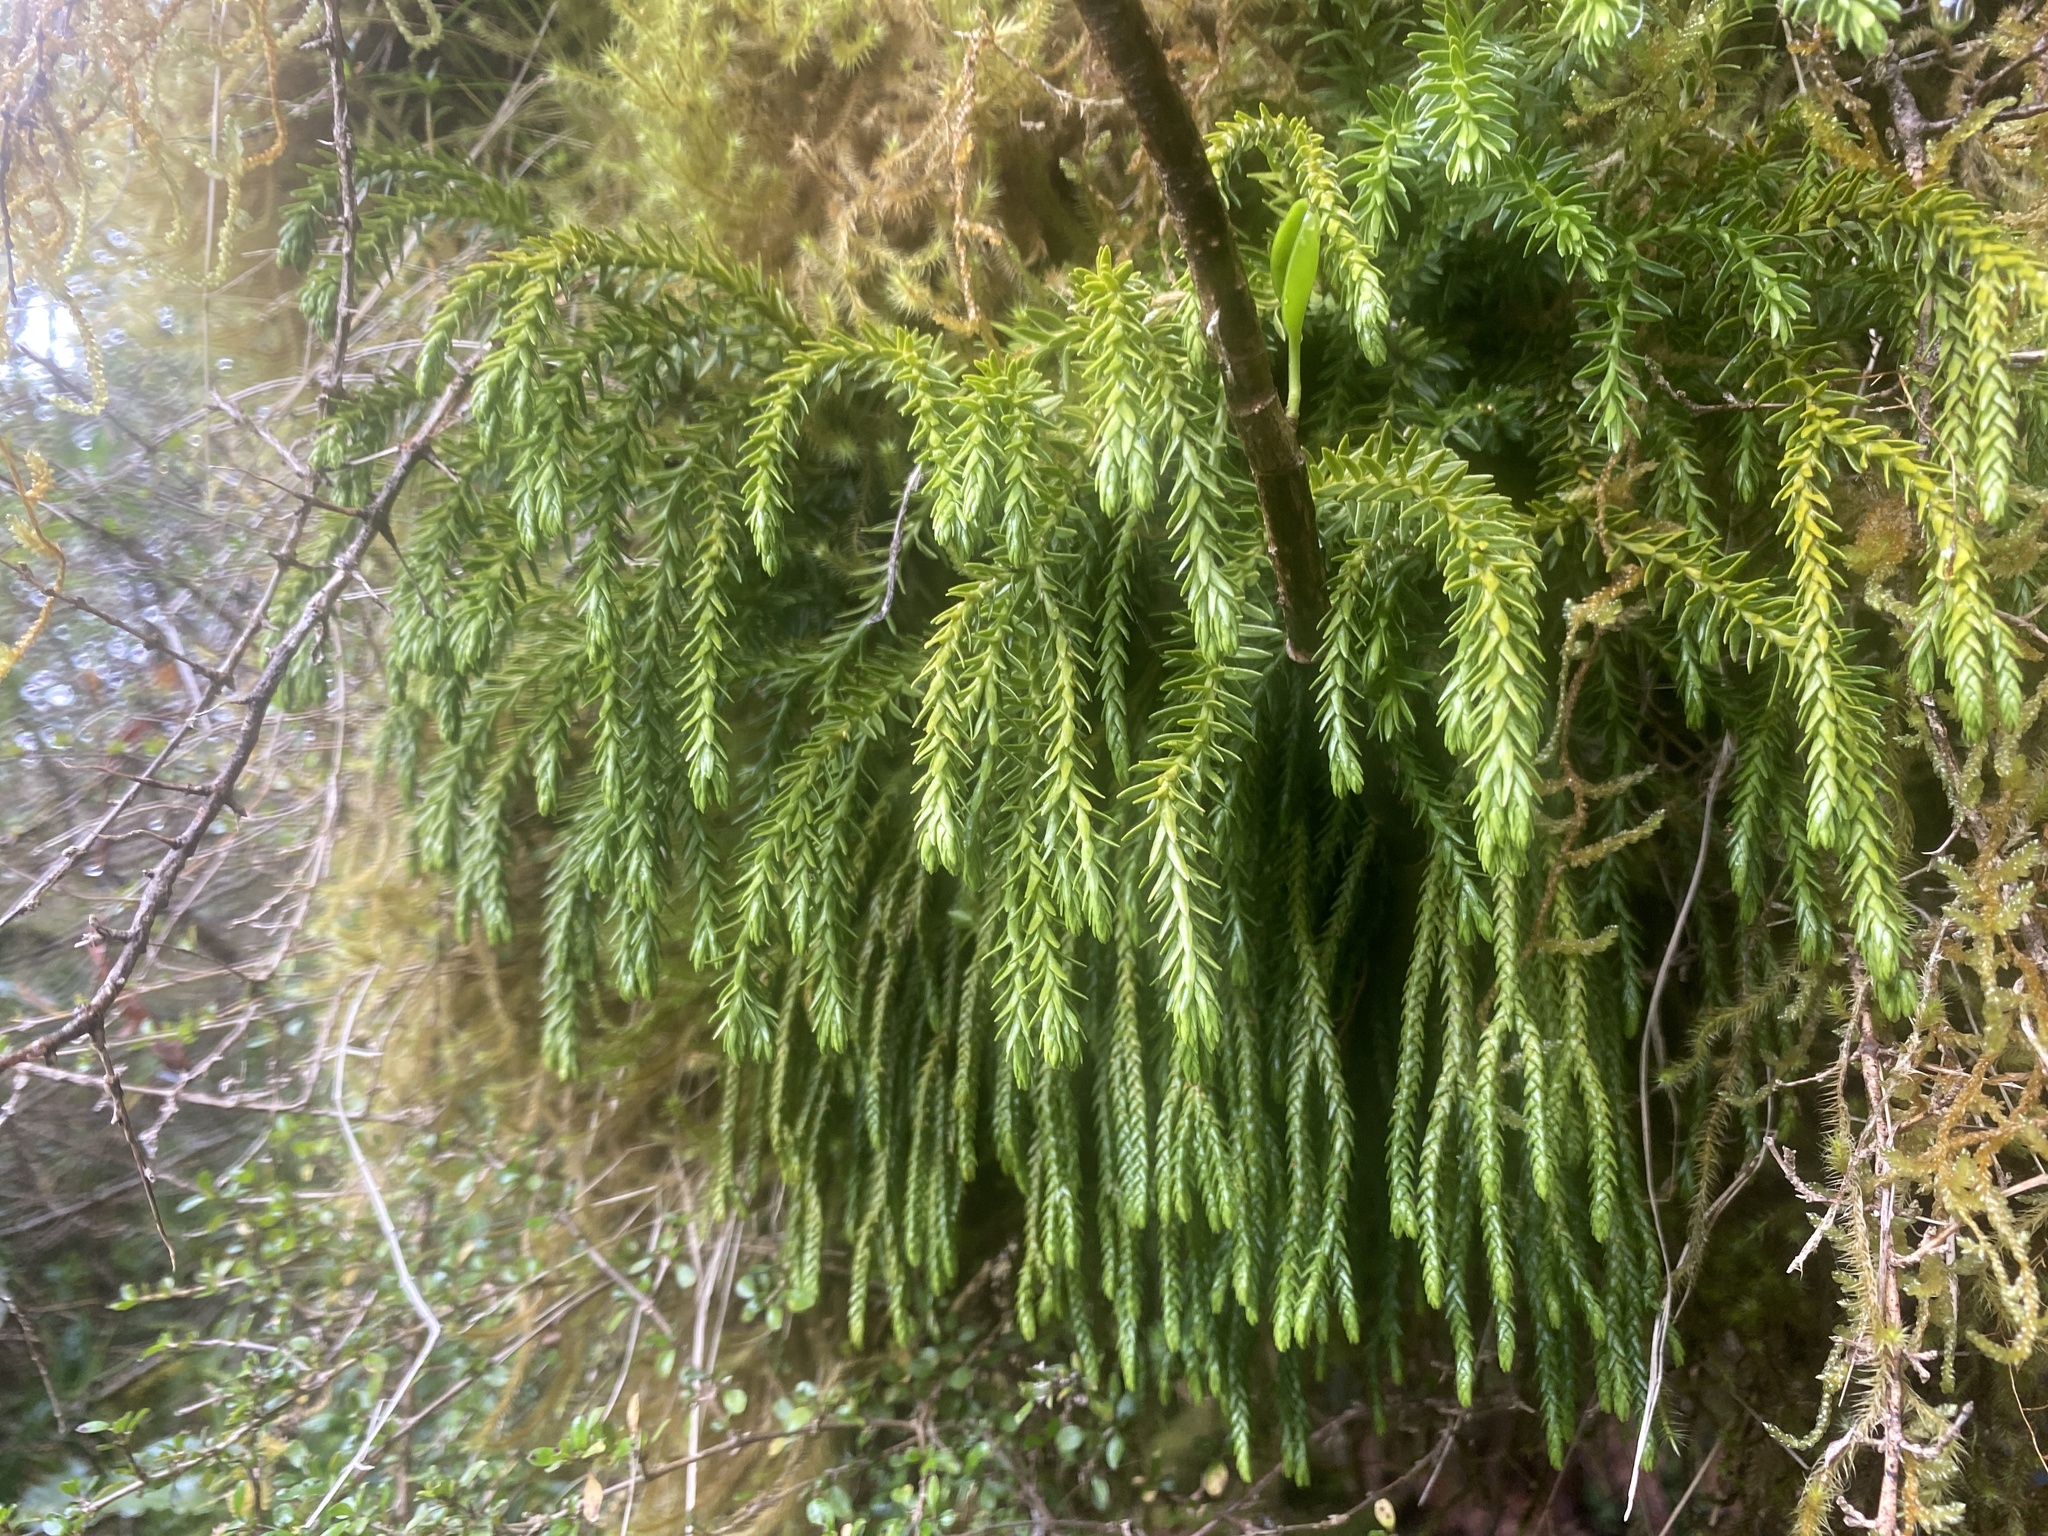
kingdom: Plantae
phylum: Tracheophyta
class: Lycopodiopsida
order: Lycopodiales
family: Lycopodiaceae
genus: Phlegmariurus
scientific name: Phlegmariurus varius
